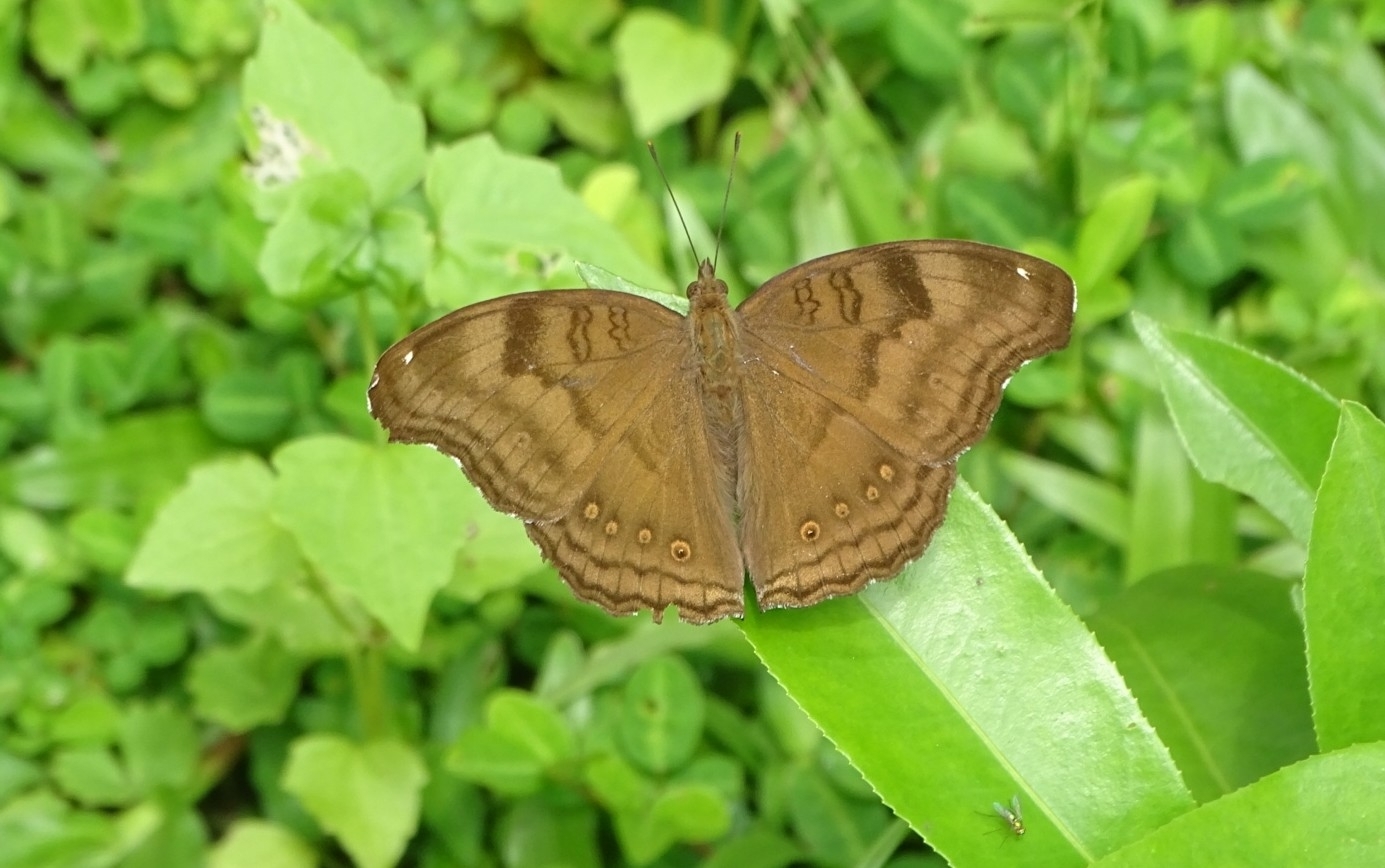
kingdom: Animalia
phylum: Arthropoda
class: Insecta
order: Lepidoptera
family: Nymphalidae
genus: Junonia
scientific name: Junonia iphita
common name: Chocolate pansy
